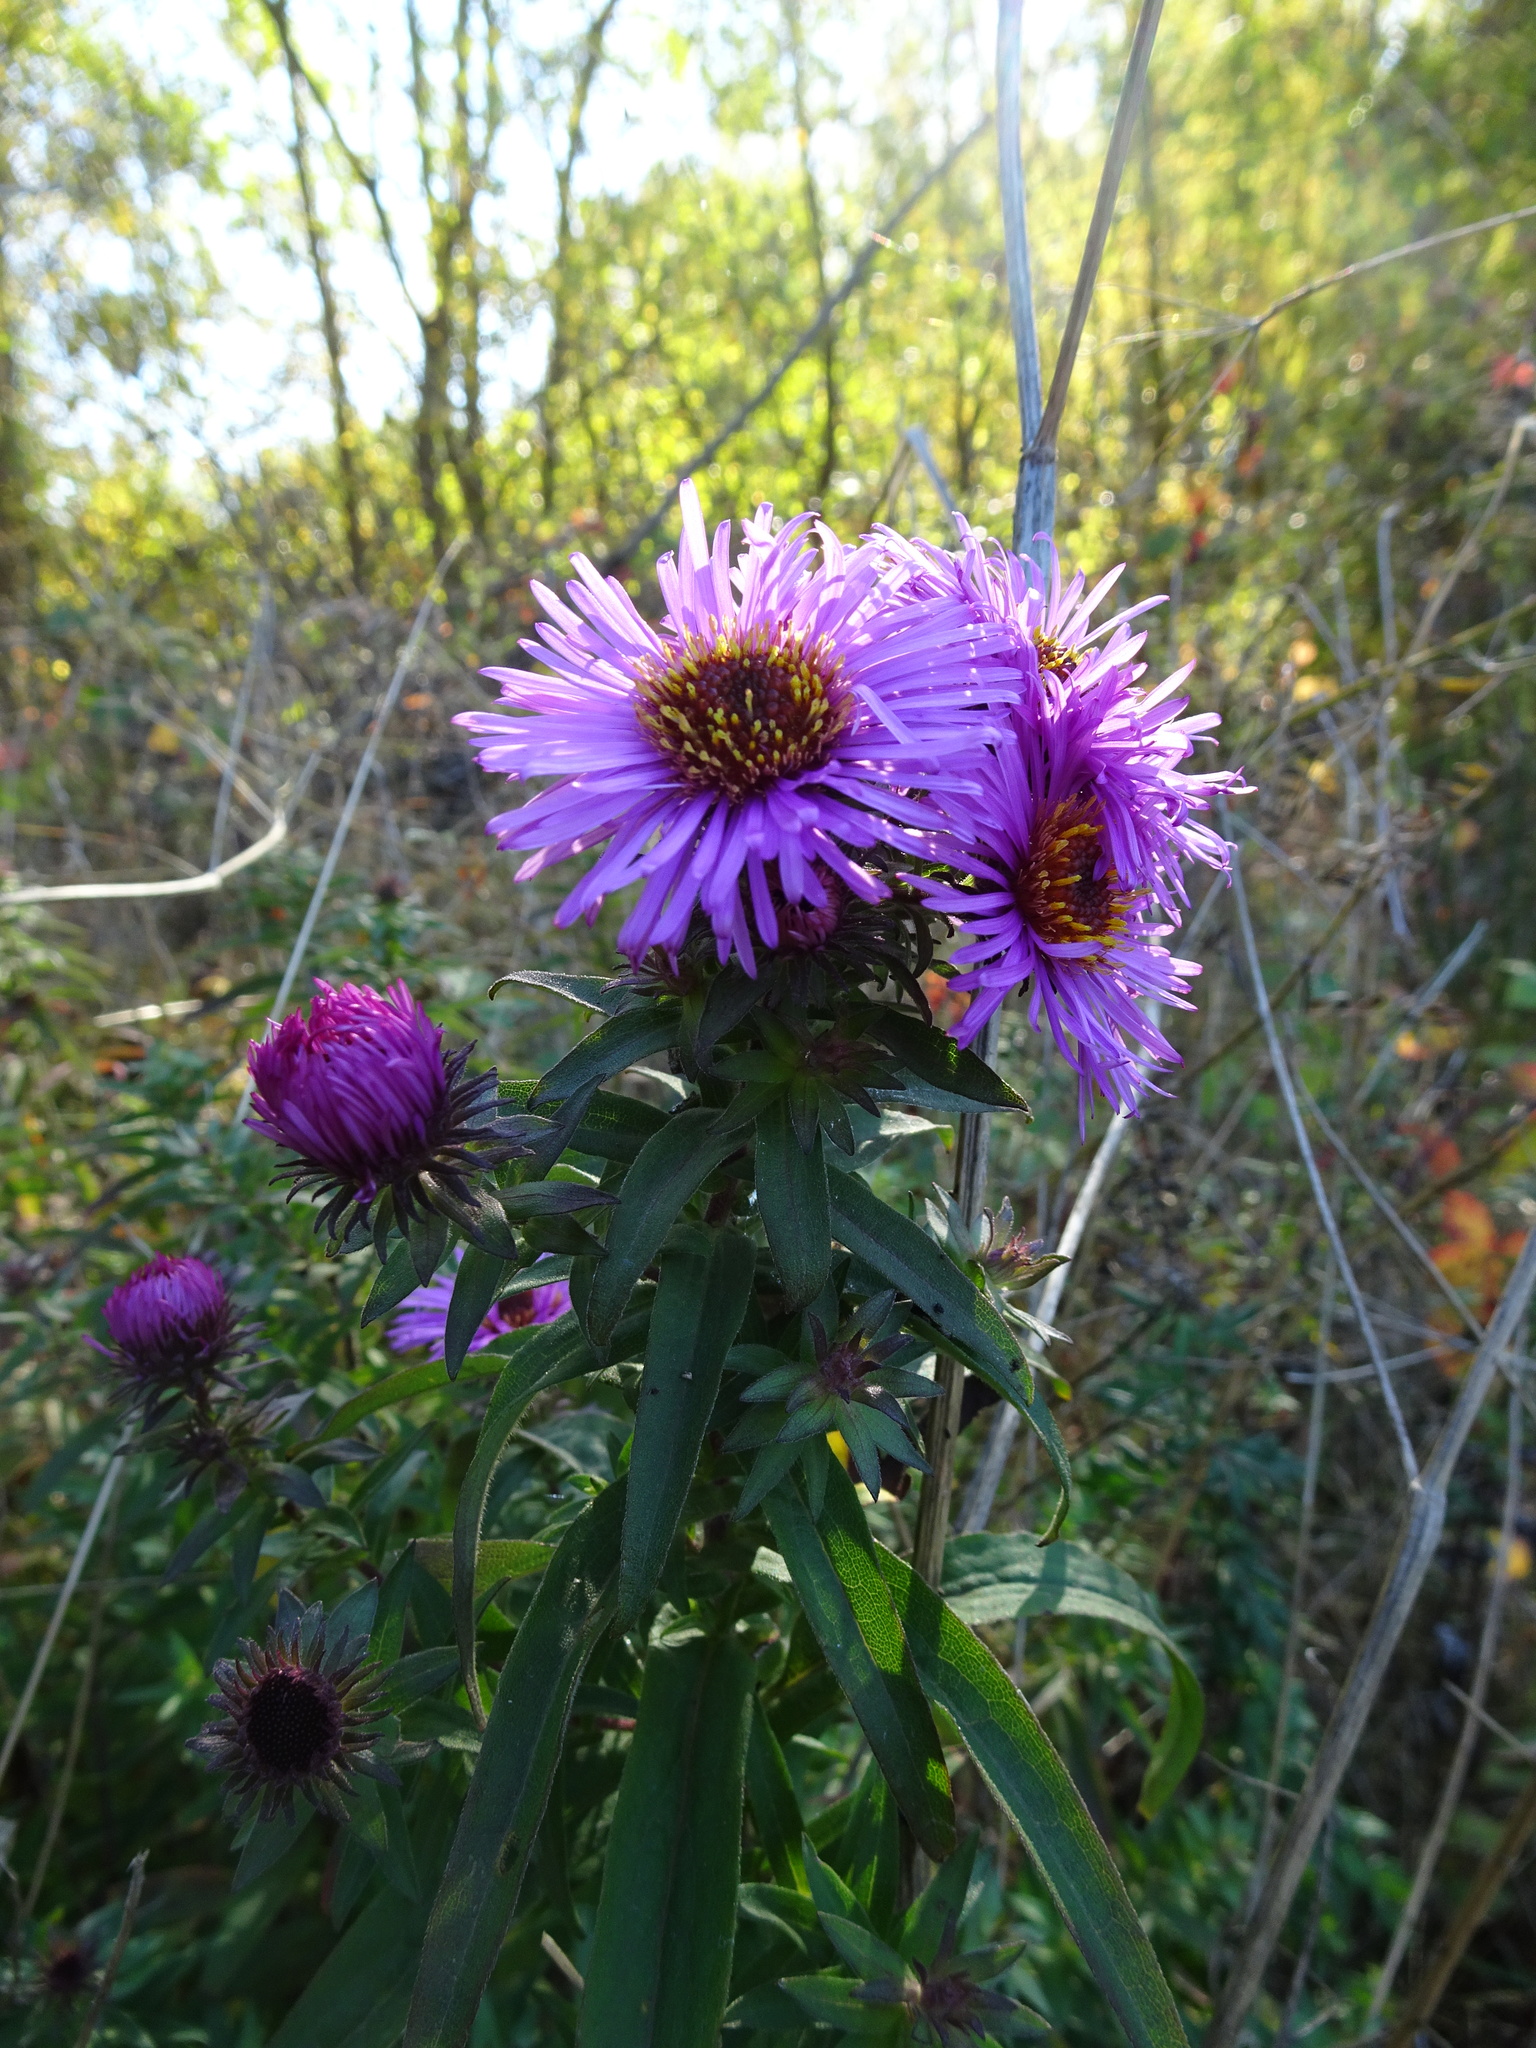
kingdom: Plantae
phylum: Tracheophyta
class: Magnoliopsida
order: Asterales
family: Asteraceae
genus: Symphyotrichum
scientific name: Symphyotrichum novae-angliae
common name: Michaelmas daisy
